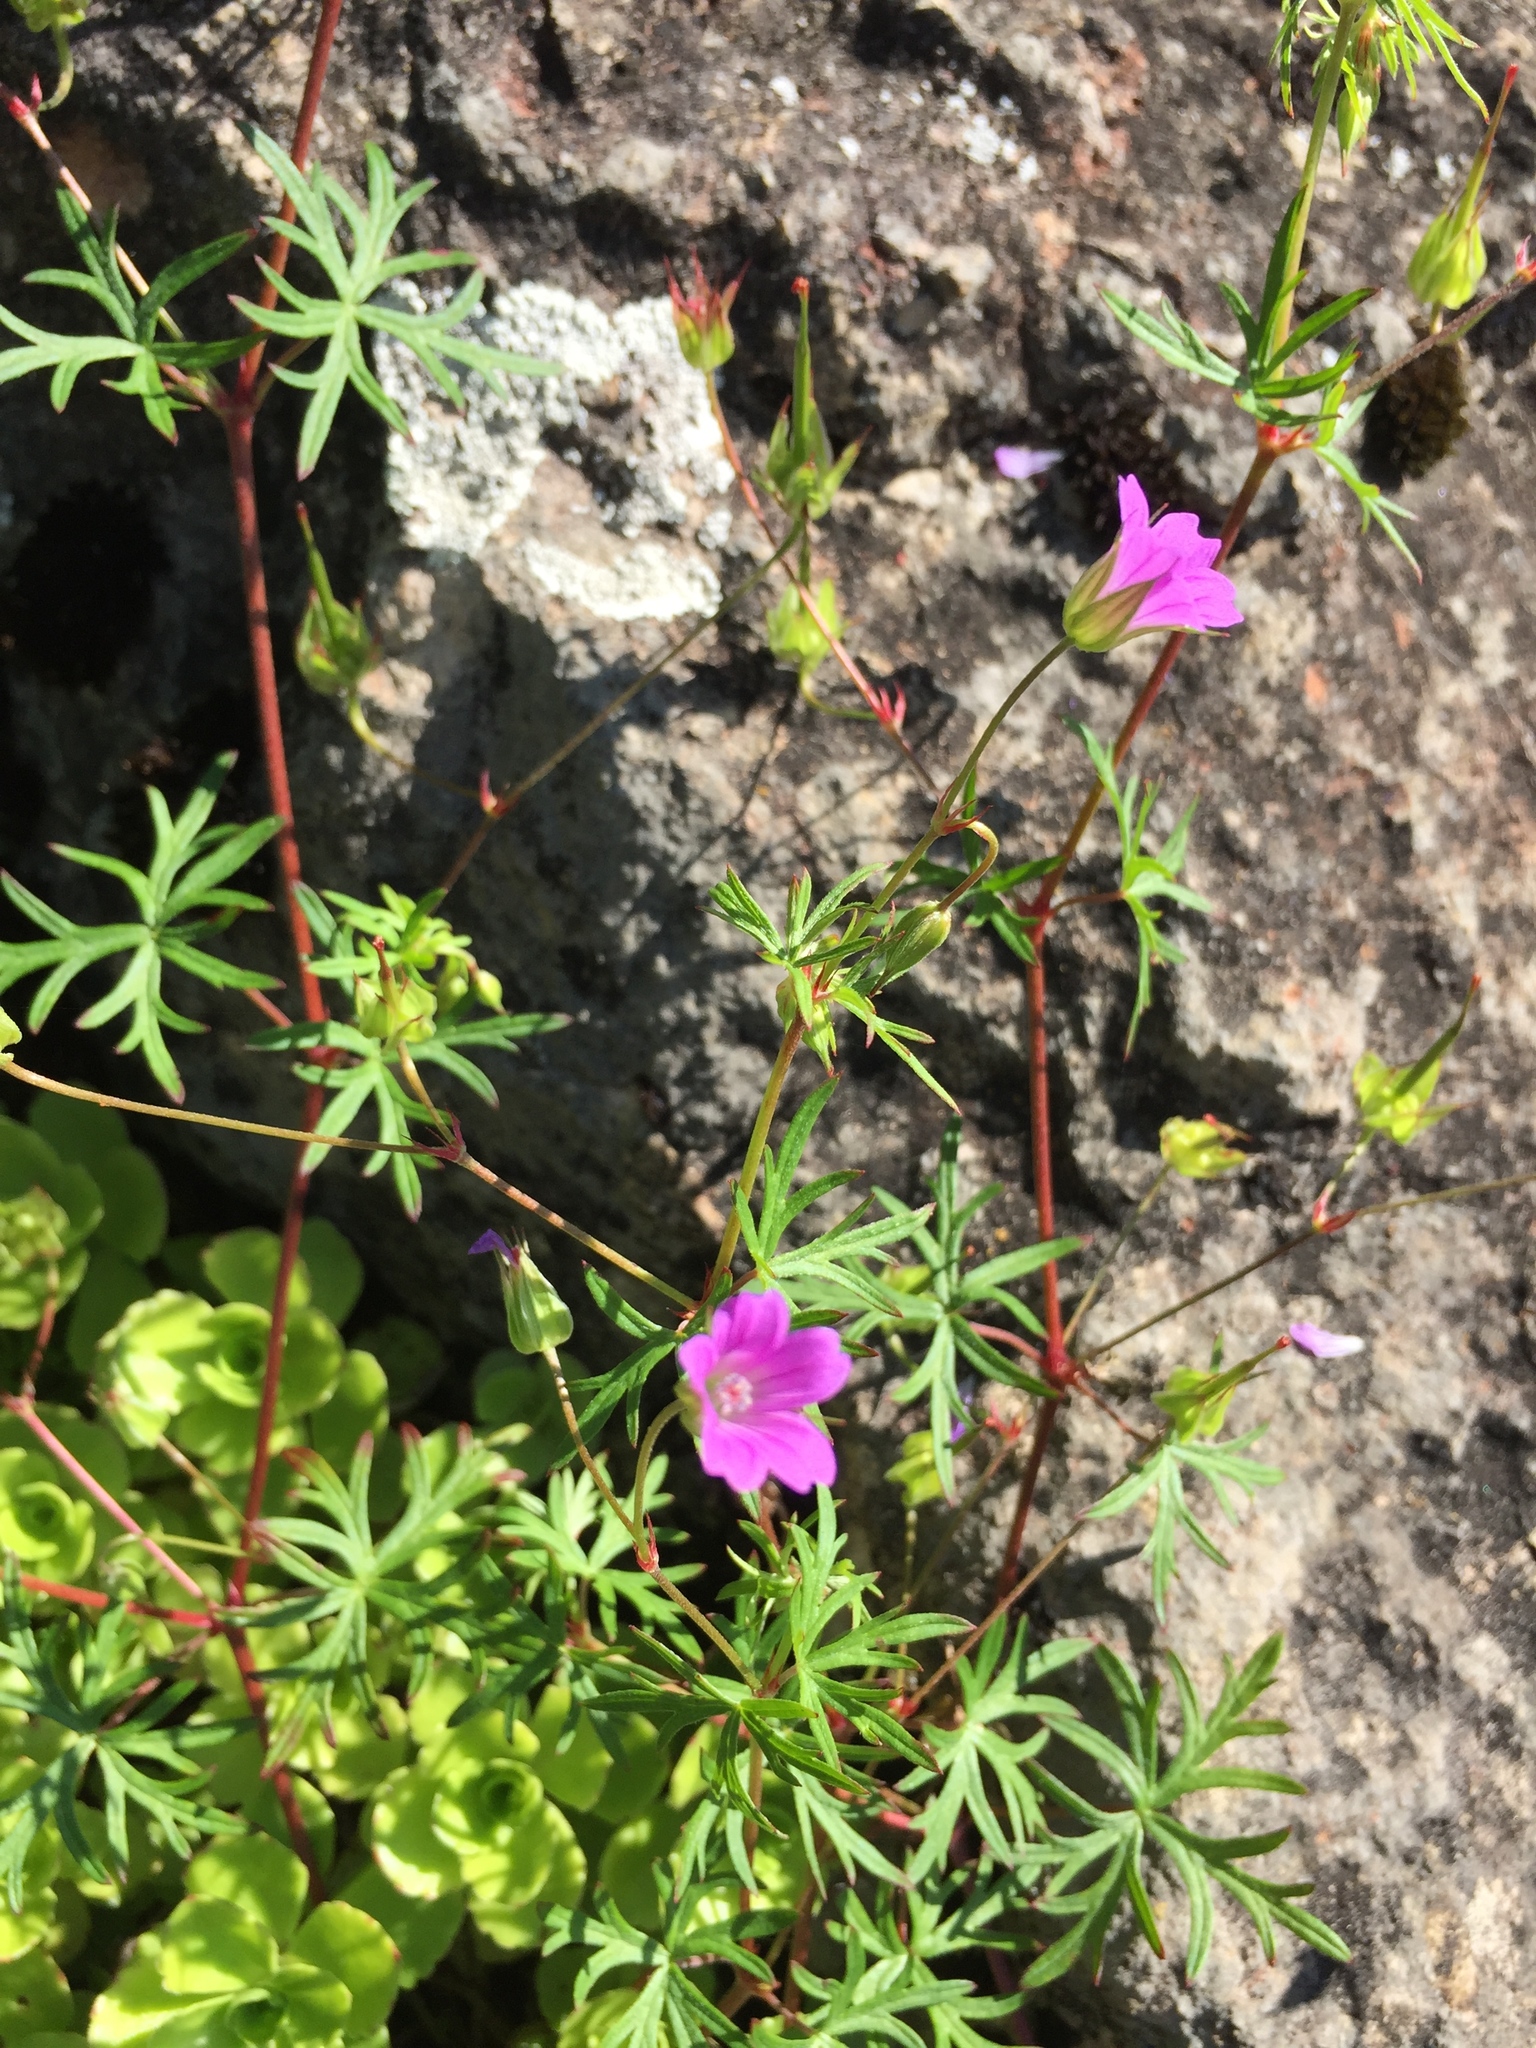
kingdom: Plantae
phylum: Tracheophyta
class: Magnoliopsida
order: Geraniales
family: Geraniaceae
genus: Geranium
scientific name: Geranium columbinum
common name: Long-stalked crane's-bill
